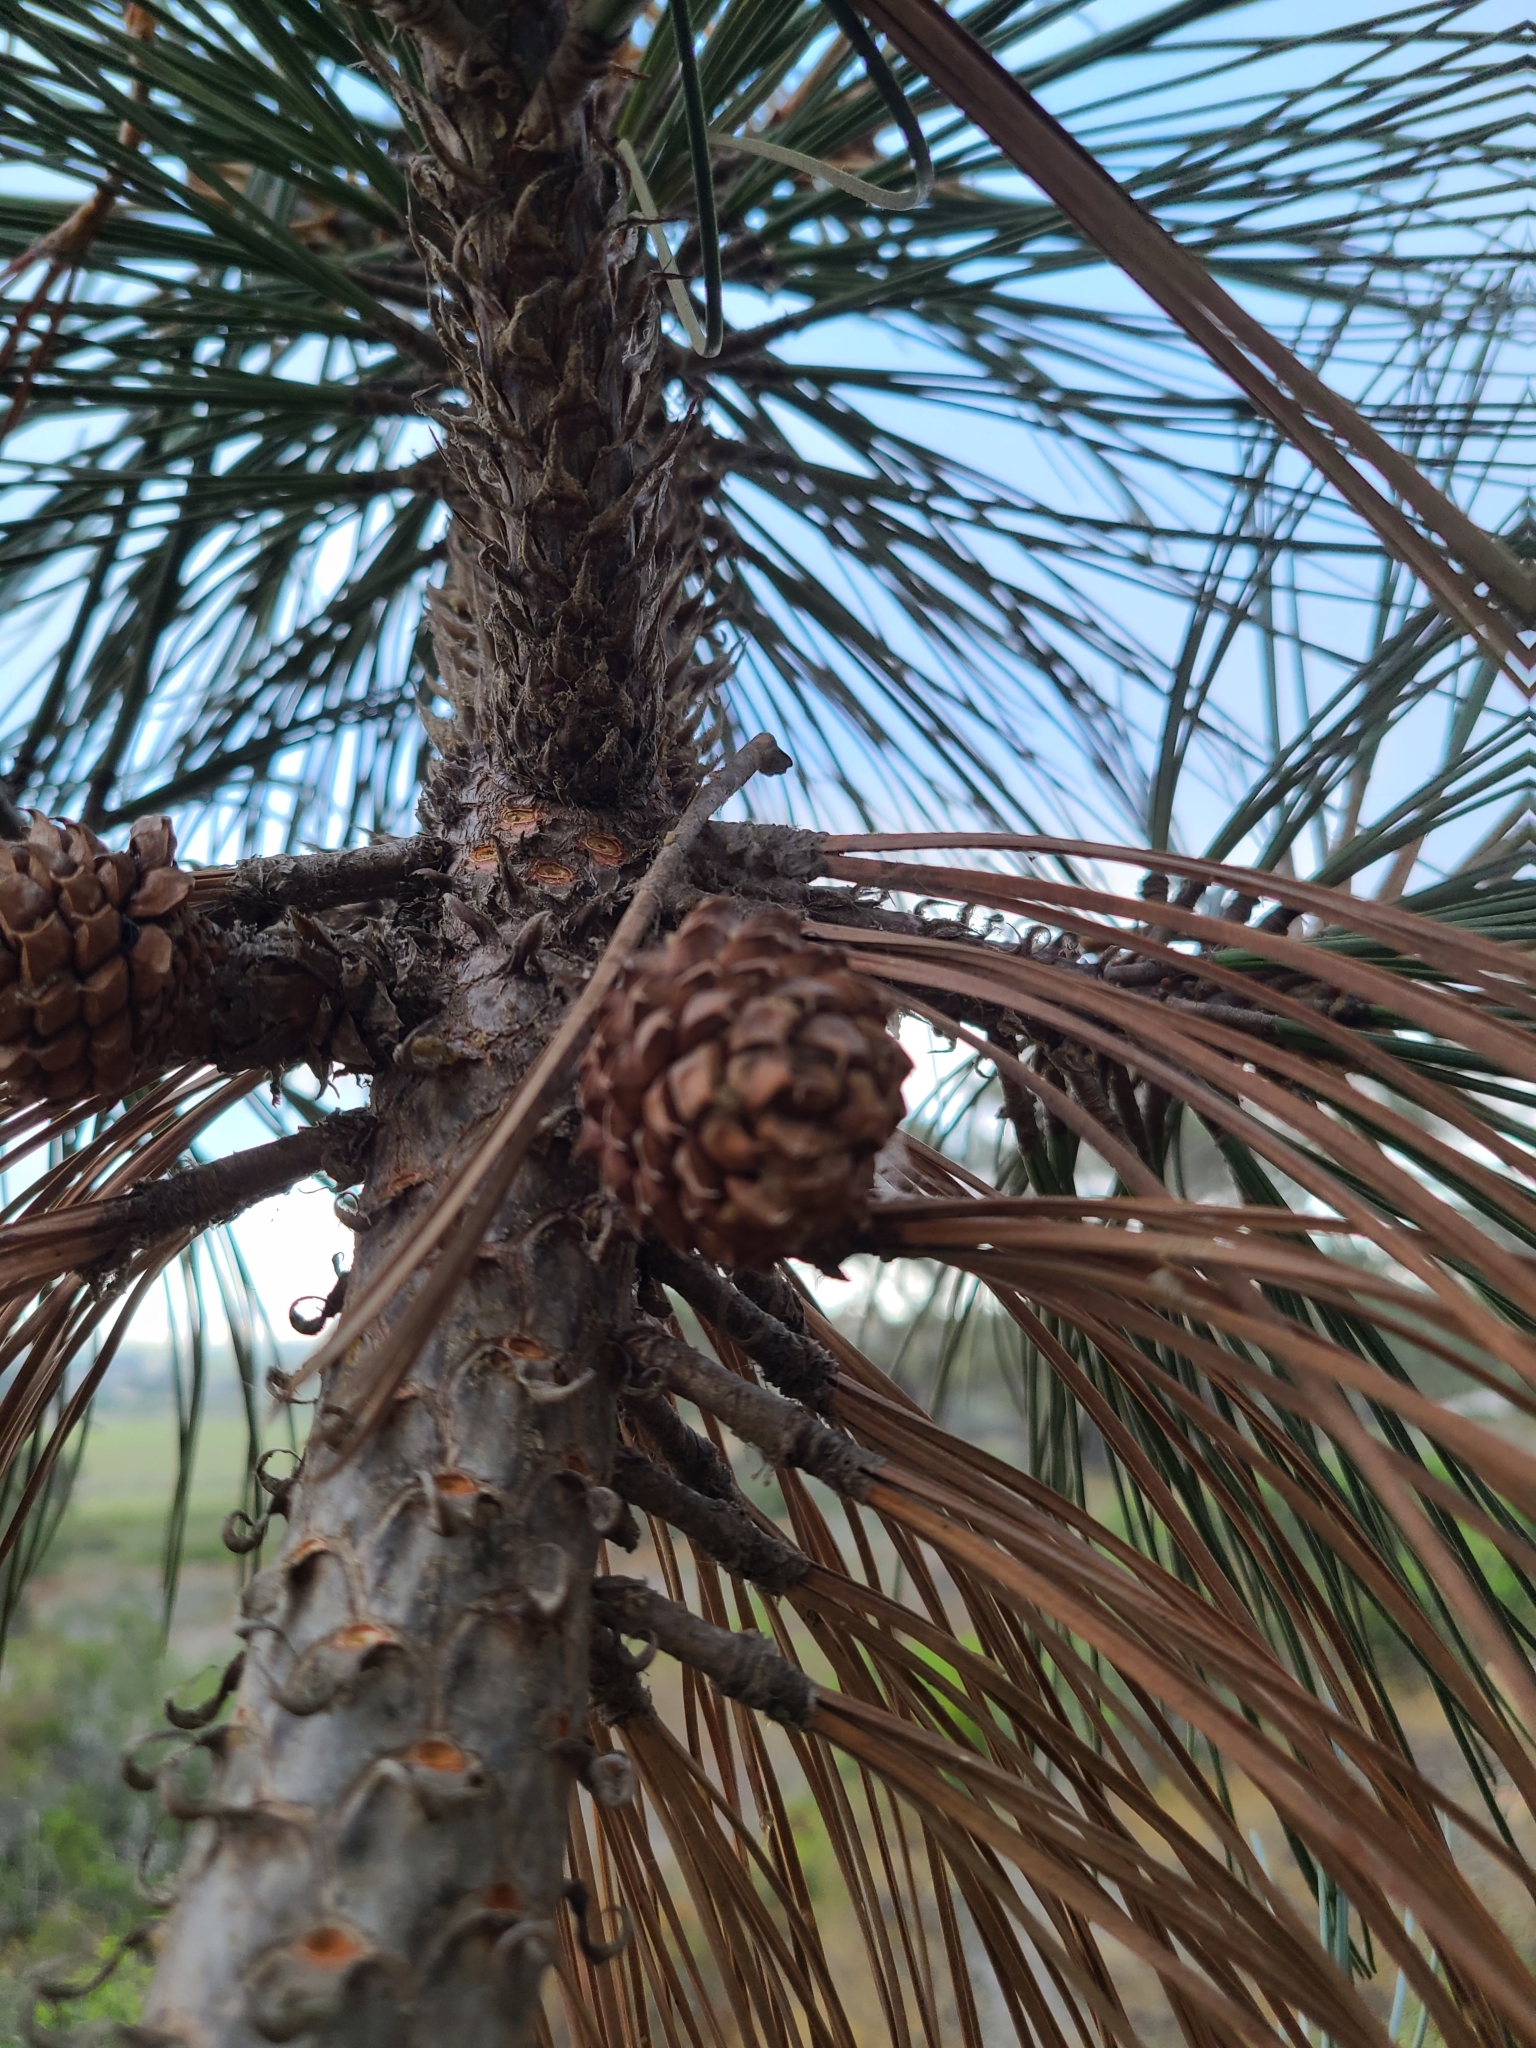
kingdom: Plantae
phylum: Tracheophyta
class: Pinopsida
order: Pinales
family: Pinaceae
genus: Pinus
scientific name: Pinus torreyana
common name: Torrey pine
